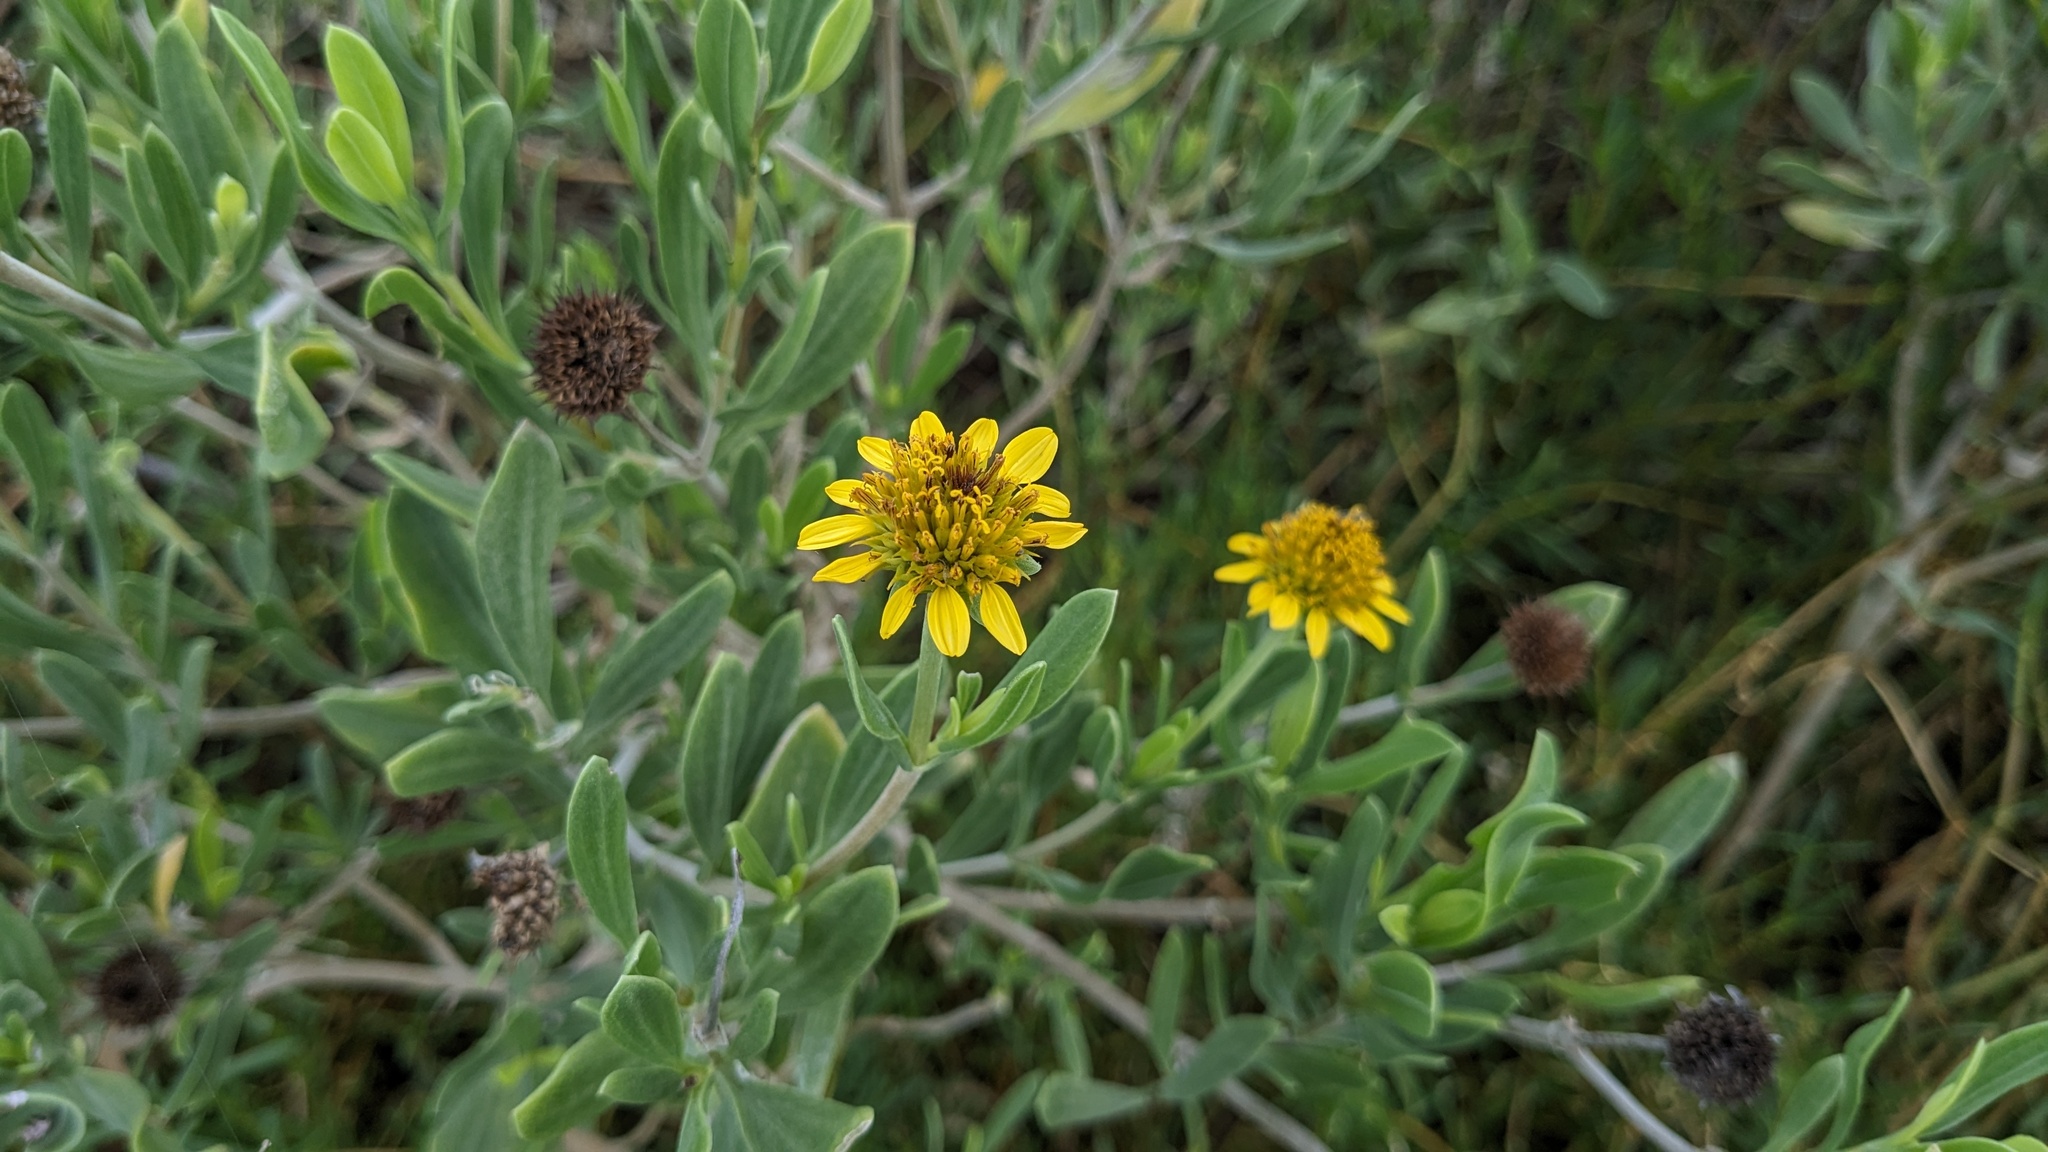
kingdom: Plantae
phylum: Tracheophyta
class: Magnoliopsida
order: Asterales
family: Asteraceae
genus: Borrichia
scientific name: Borrichia frutescens
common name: Sea oxeye
